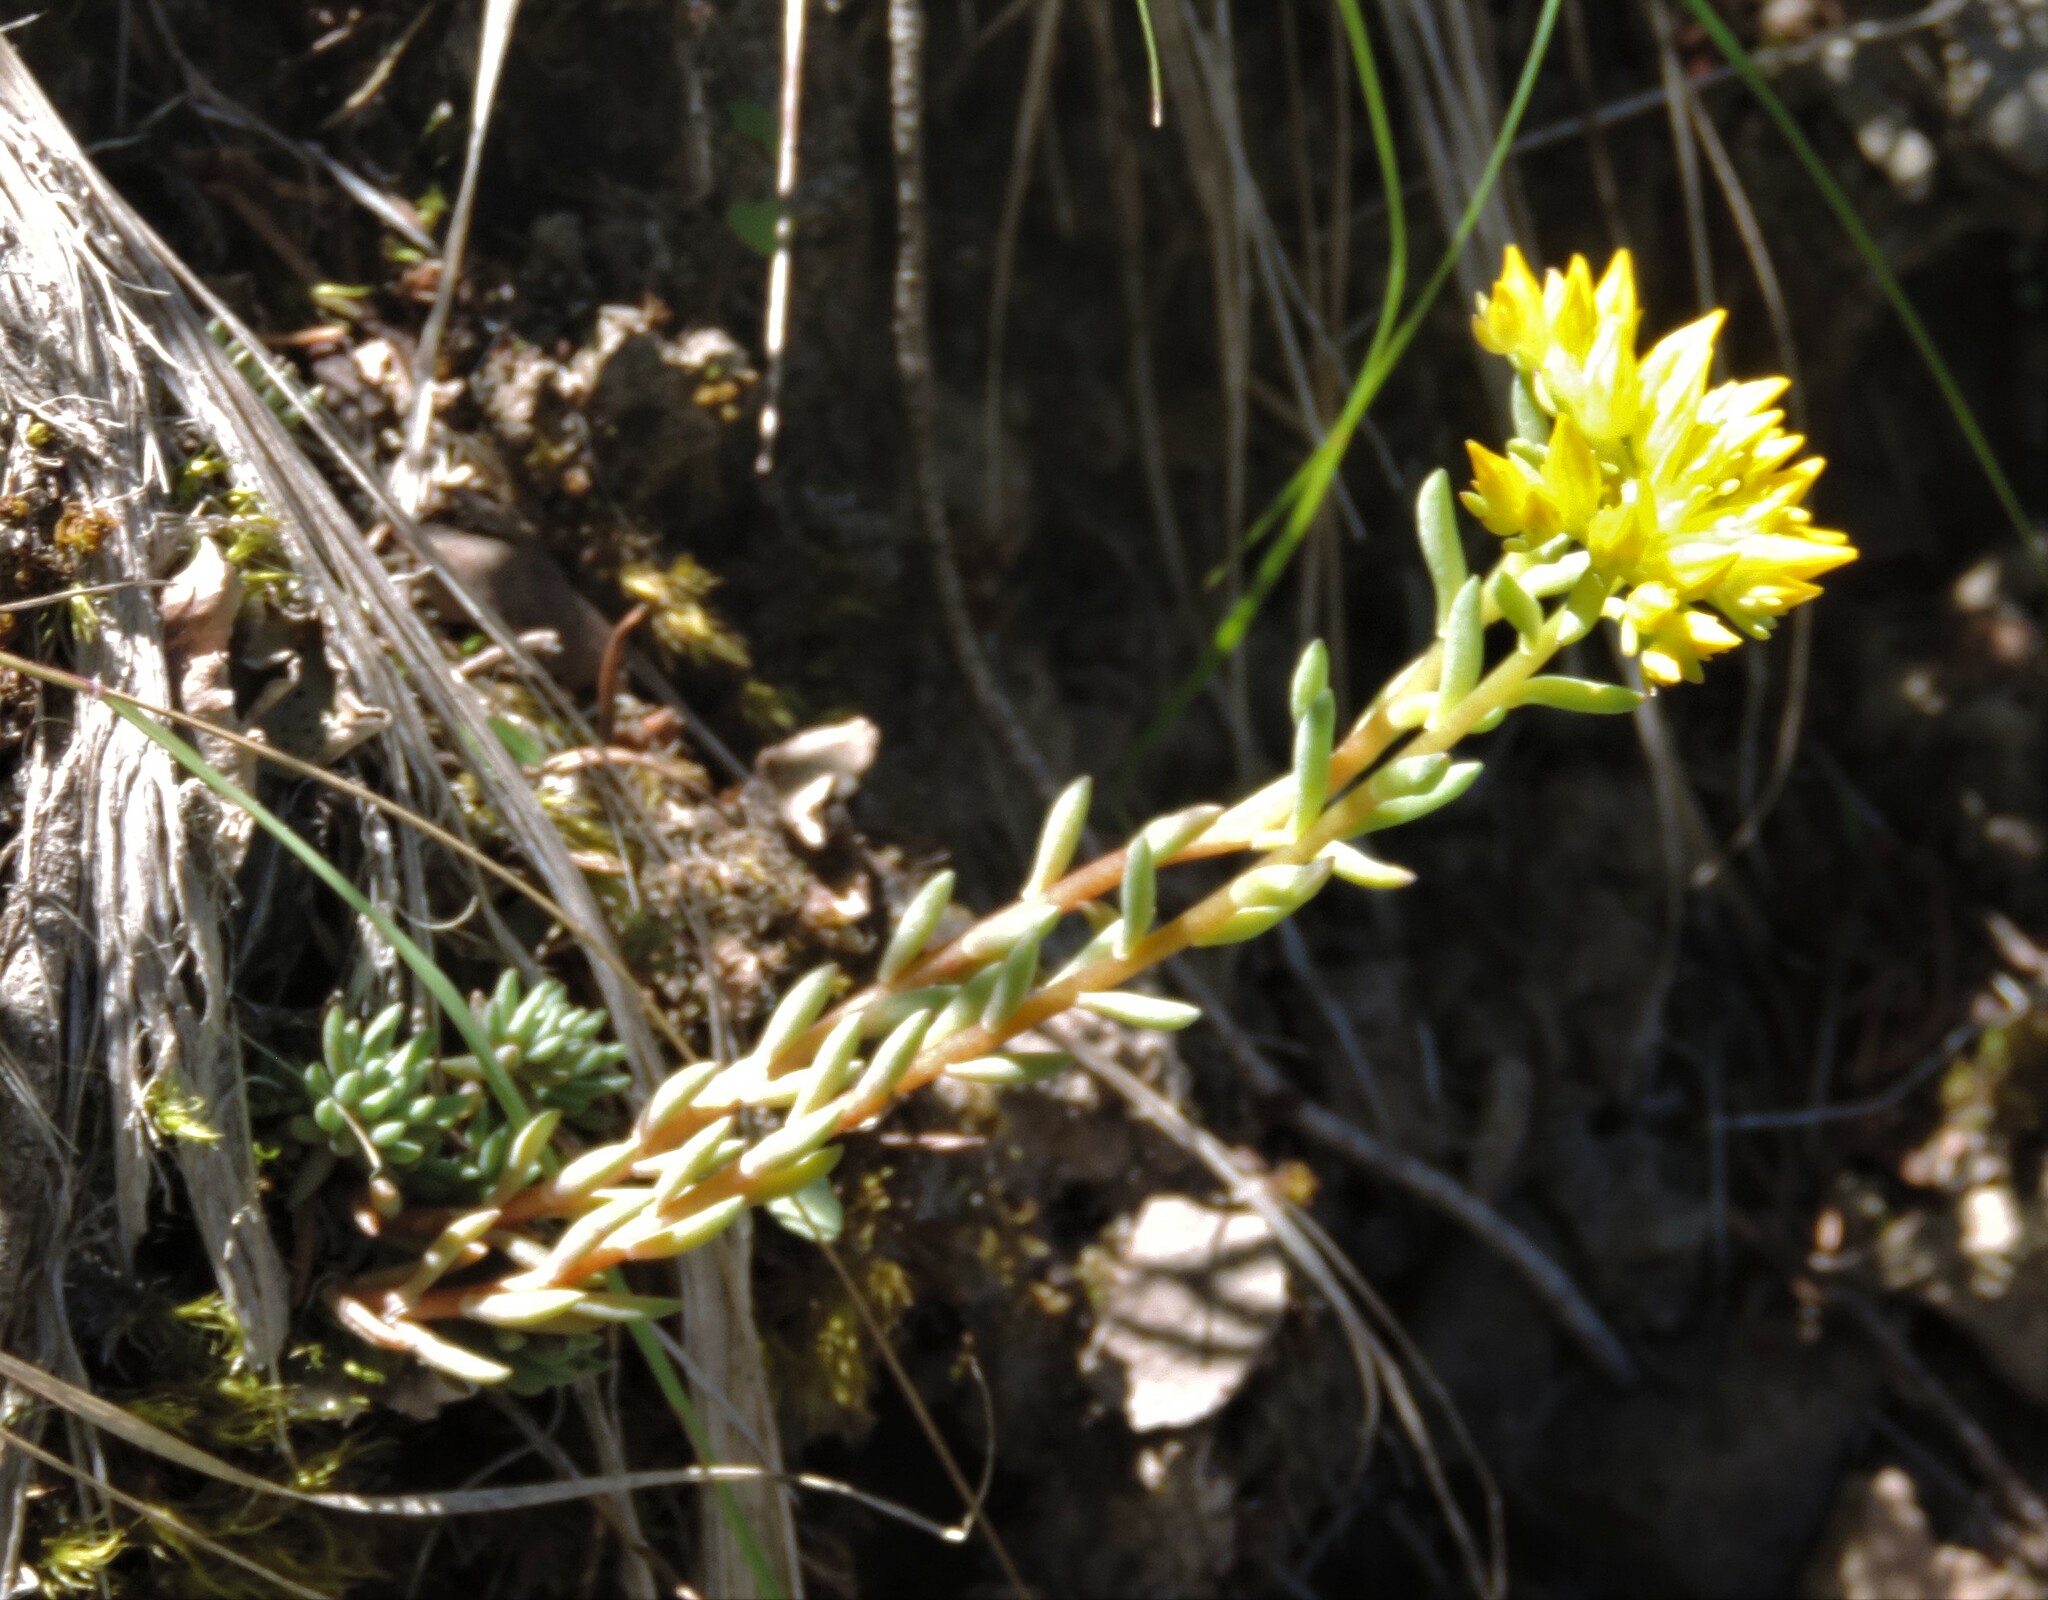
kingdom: Plantae
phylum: Tracheophyta
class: Magnoliopsida
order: Saxifragales
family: Crassulaceae
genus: Sedum
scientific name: Sedum lanceolatum
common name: Common stonecrop
